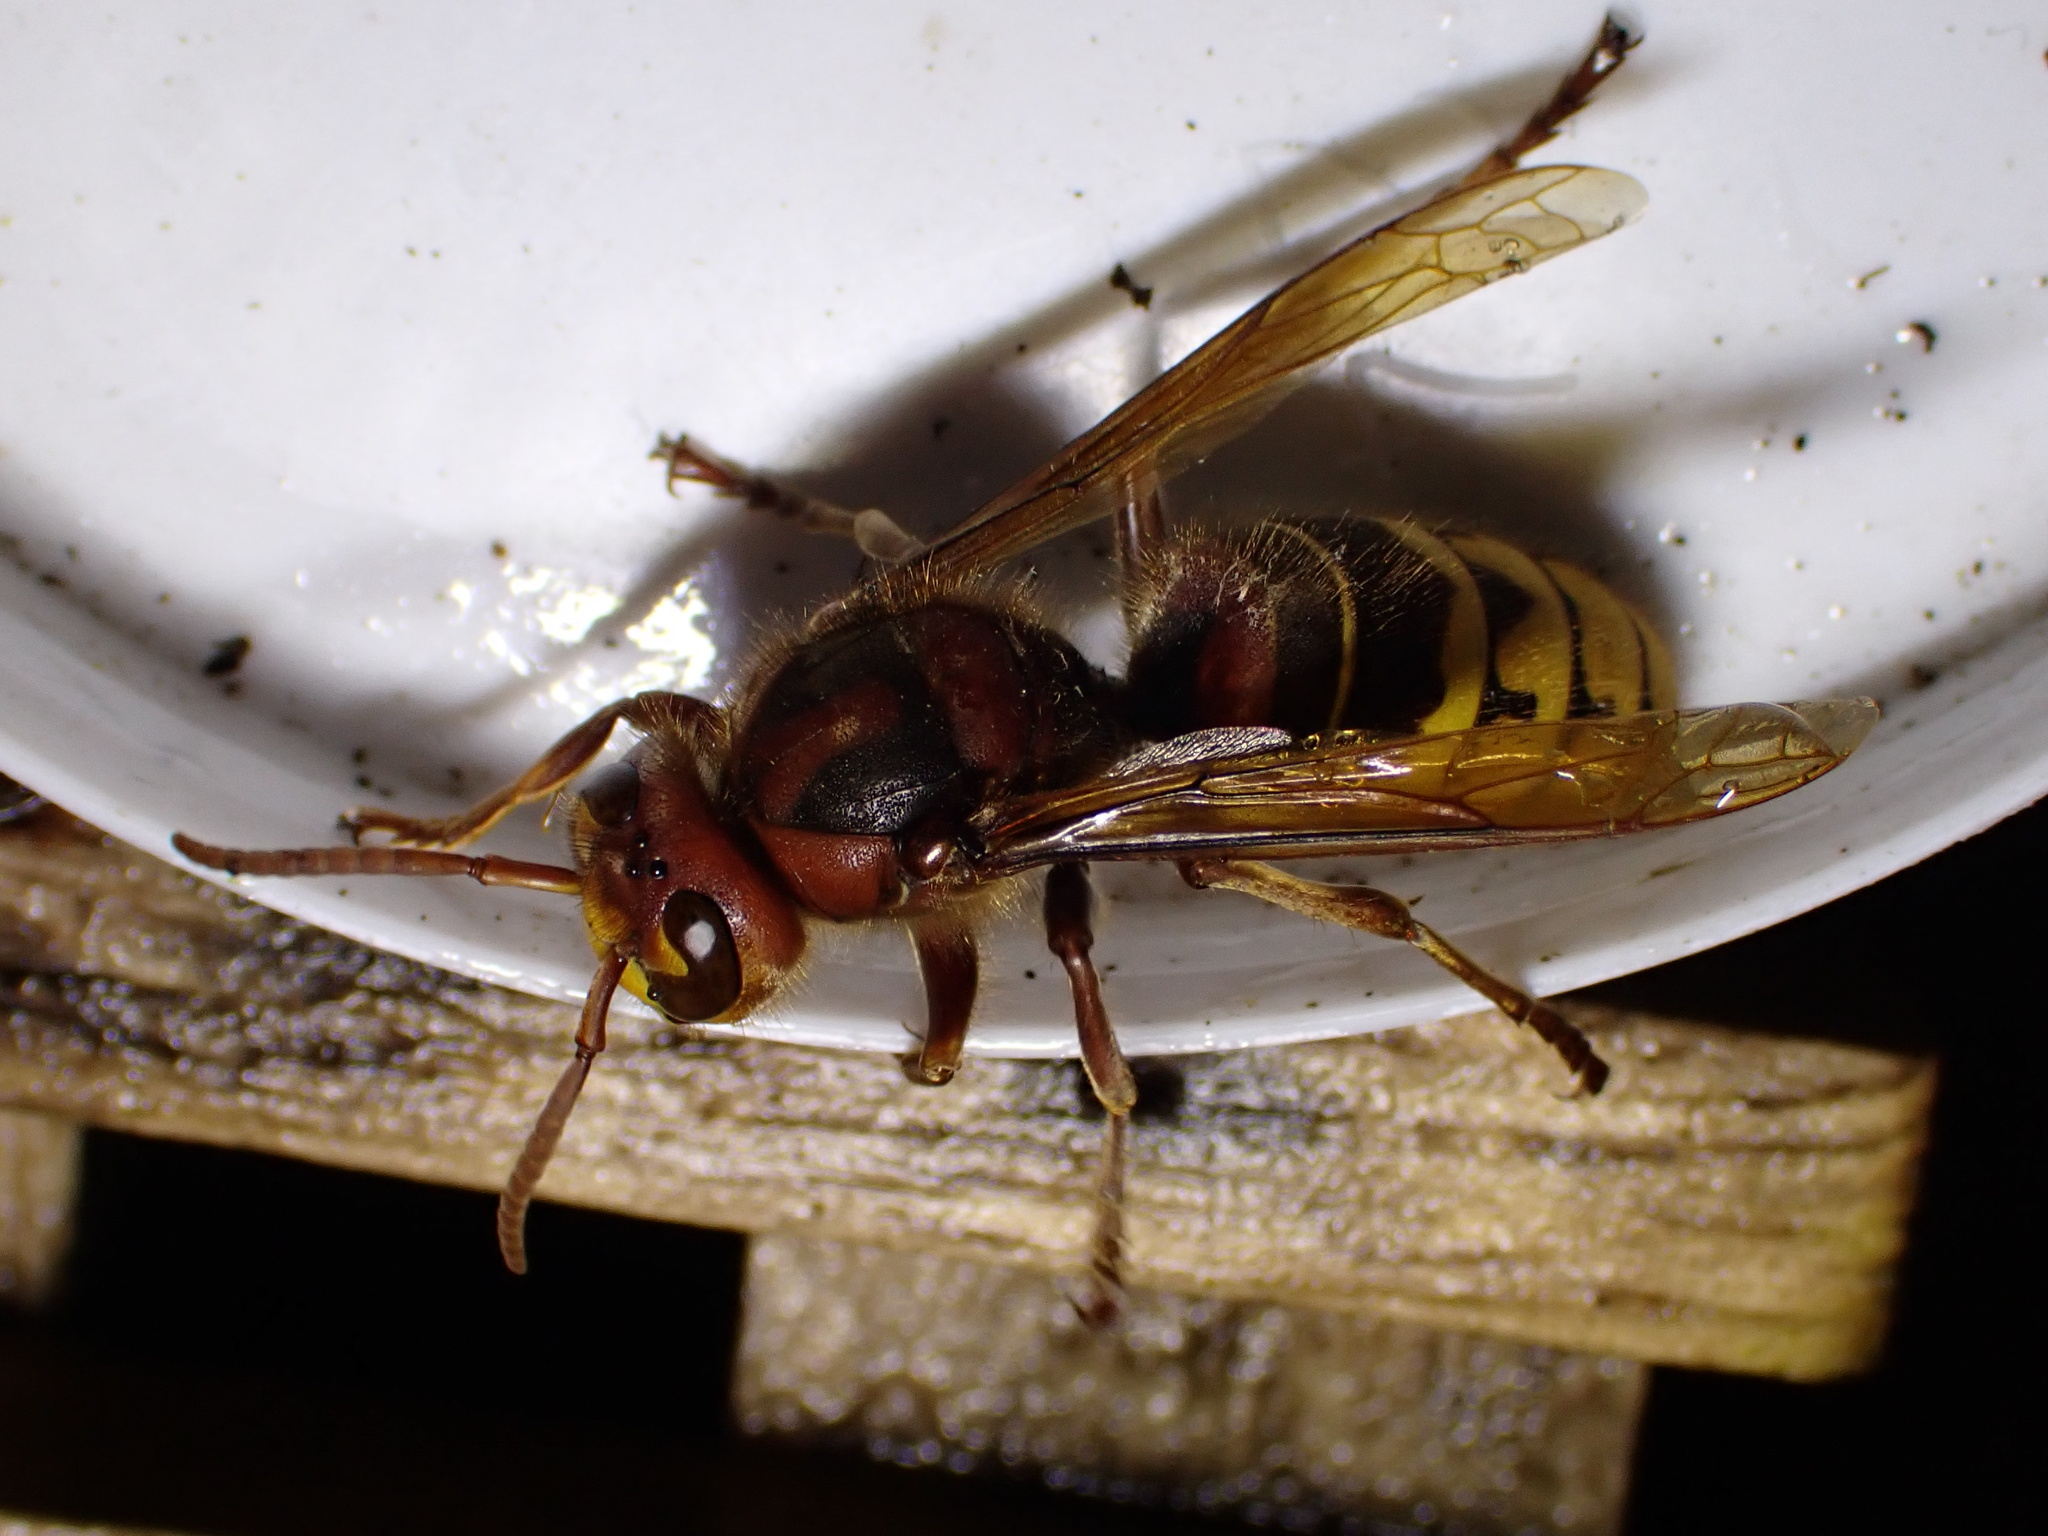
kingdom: Animalia
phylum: Arthropoda
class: Insecta
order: Hymenoptera
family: Vespidae
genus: Vespa
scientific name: Vespa crabro
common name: Hornet
